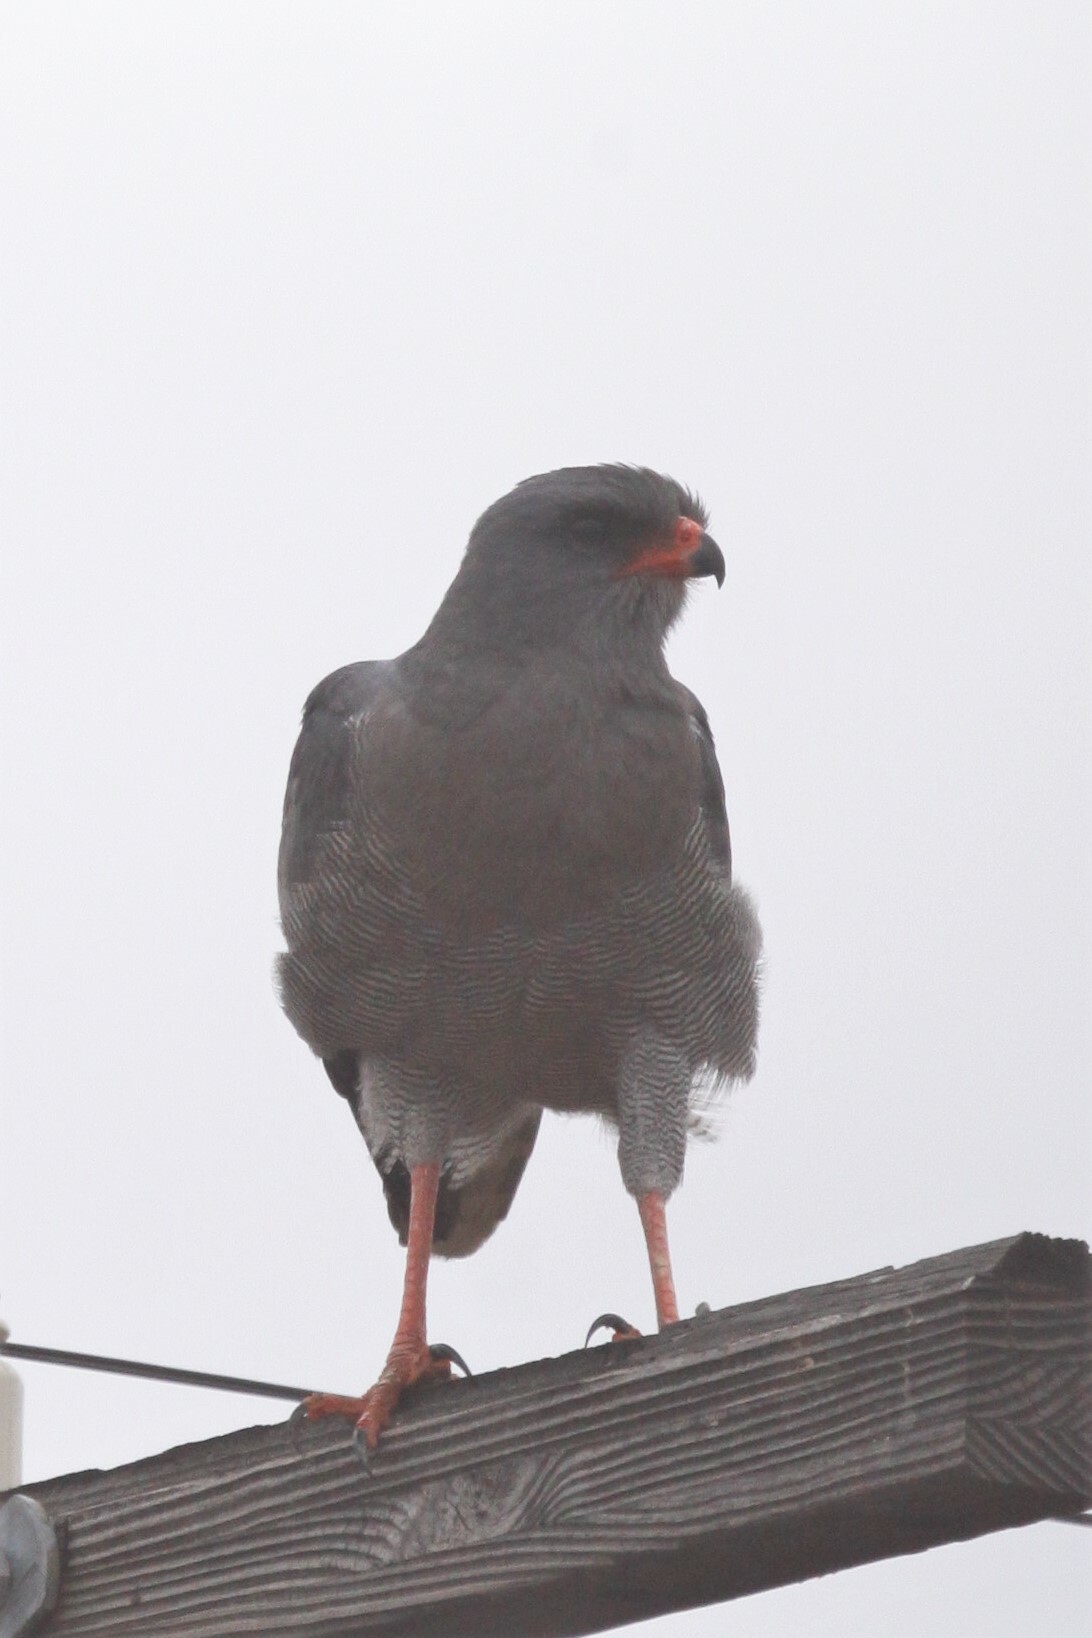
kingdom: Animalia
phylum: Chordata
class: Aves
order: Accipitriformes
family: Accipitridae
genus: Melierax
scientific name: Melierax metabates
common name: Dark chanting-goshawk
